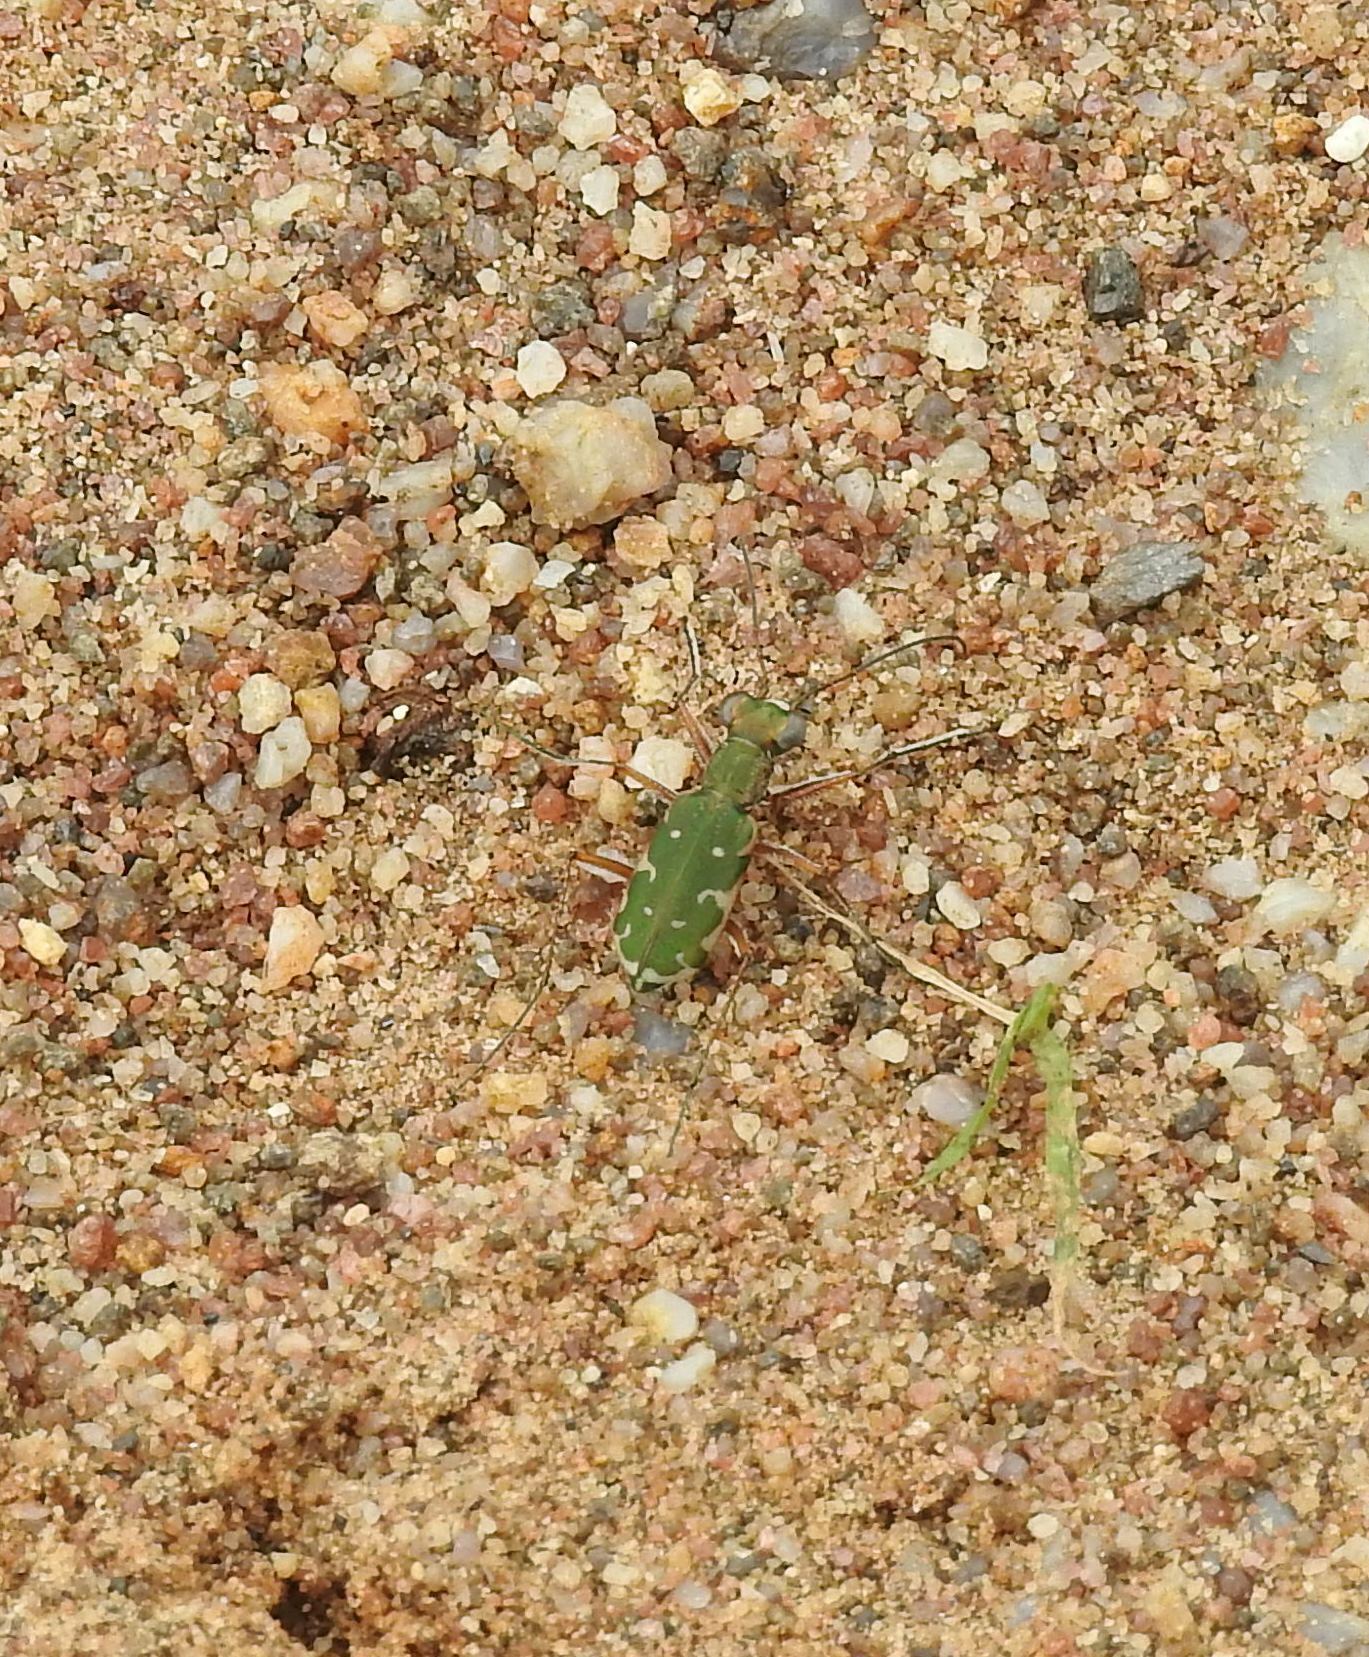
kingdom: Animalia
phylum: Arthropoda
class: Insecta
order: Coleoptera
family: Carabidae
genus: Myriochila
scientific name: Myriochila fastidiosa
